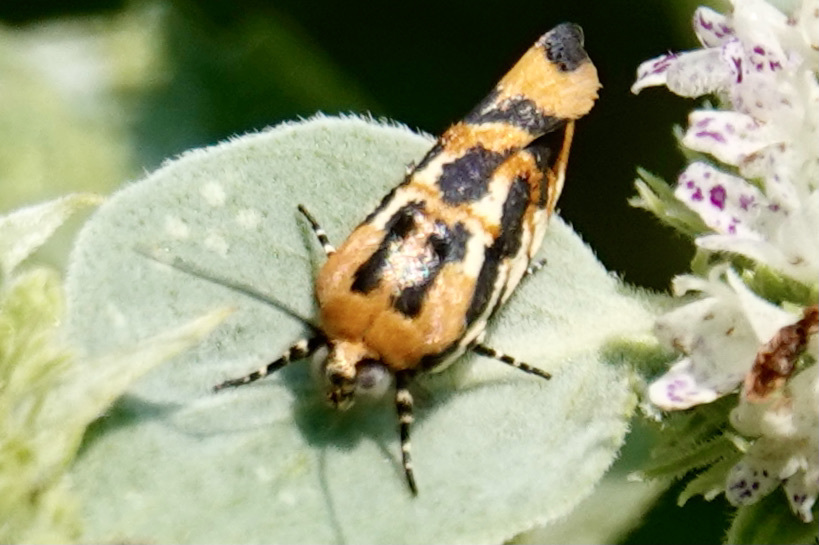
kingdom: Animalia
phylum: Arthropoda
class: Insecta
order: Lepidoptera
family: Noctuidae
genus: Acontia
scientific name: Acontia leo
